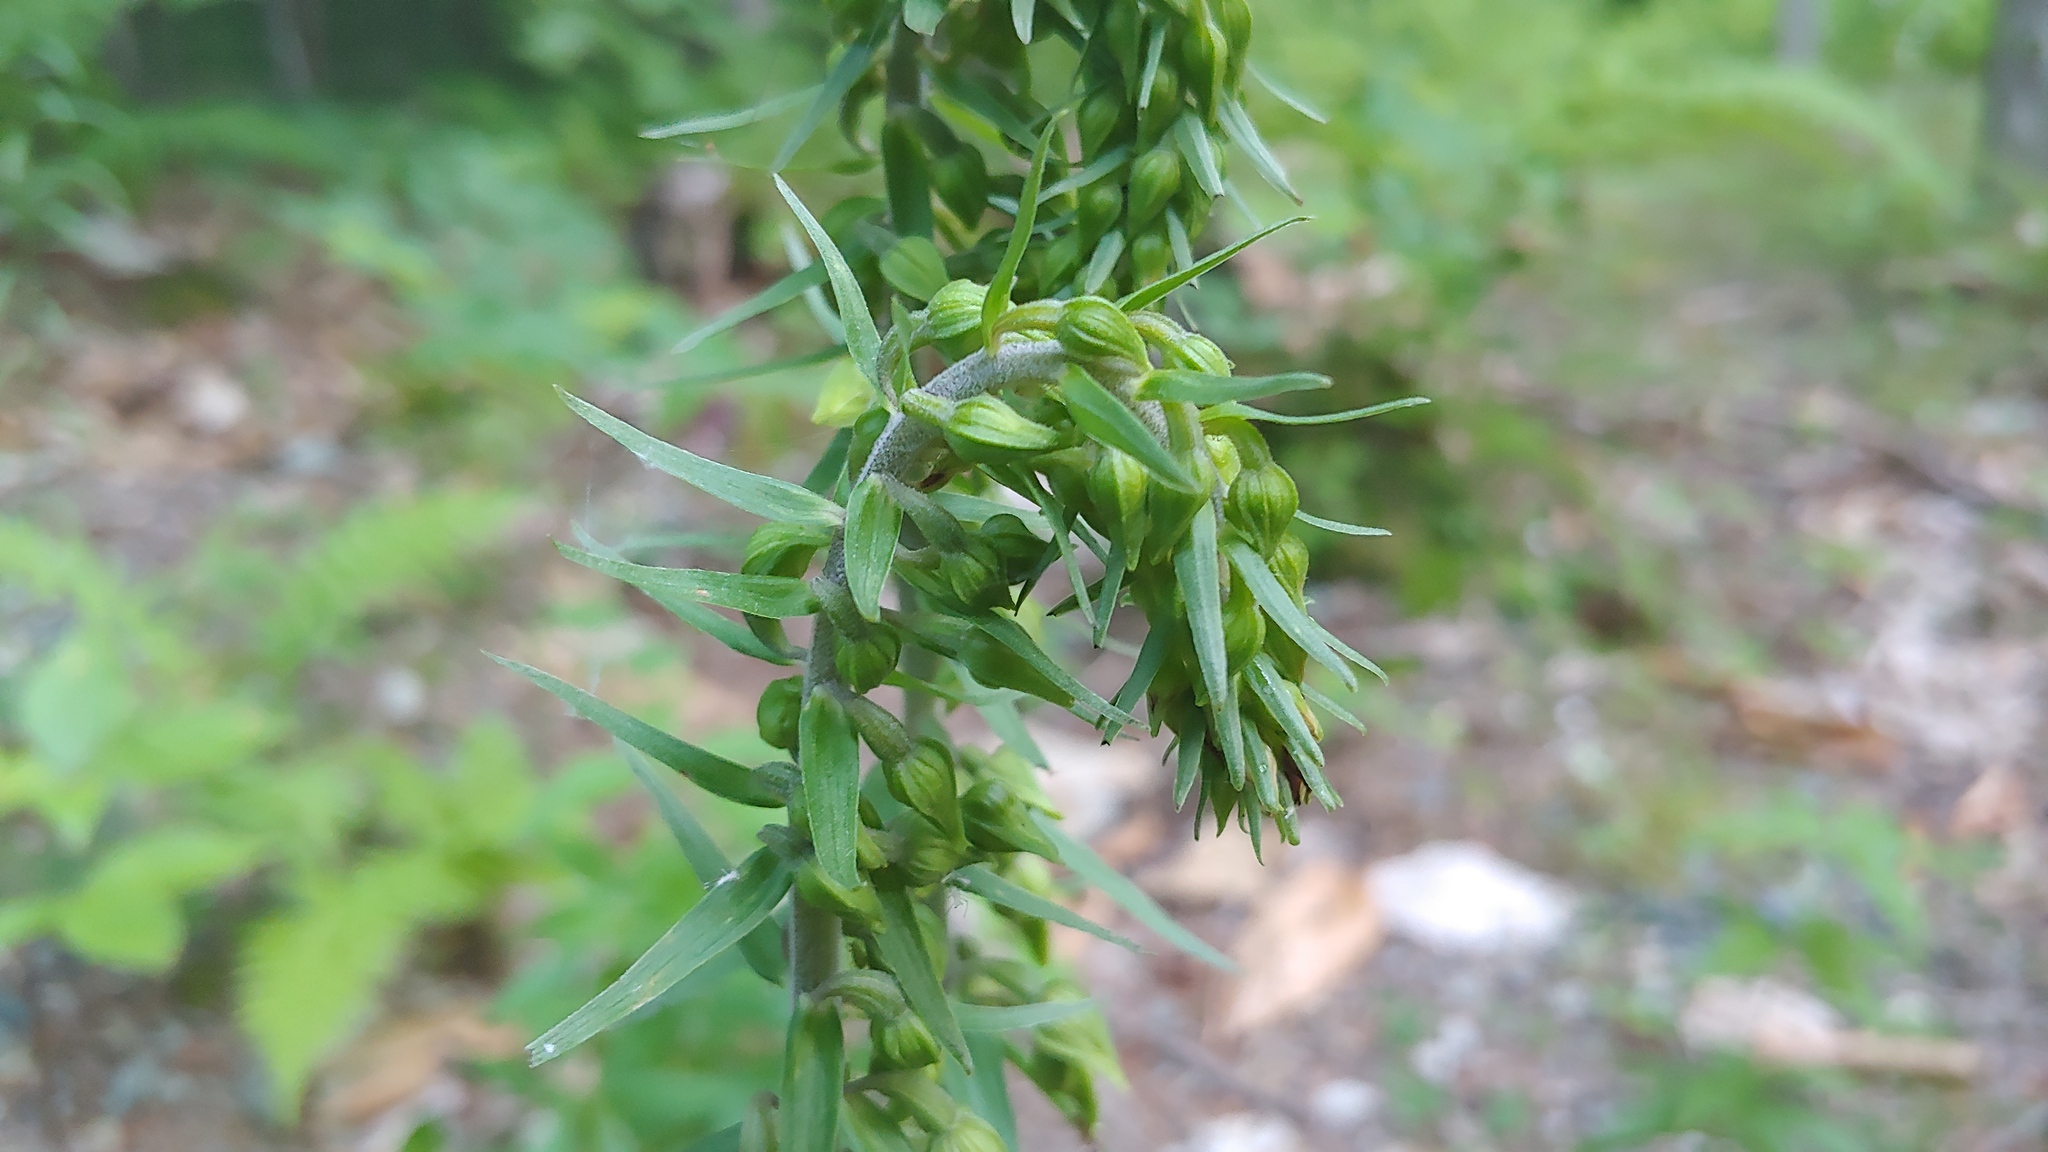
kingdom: Plantae
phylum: Tracheophyta
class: Liliopsida
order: Asparagales
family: Orchidaceae
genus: Epipactis
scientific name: Epipactis helleborine
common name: Broad-leaved helleborine
